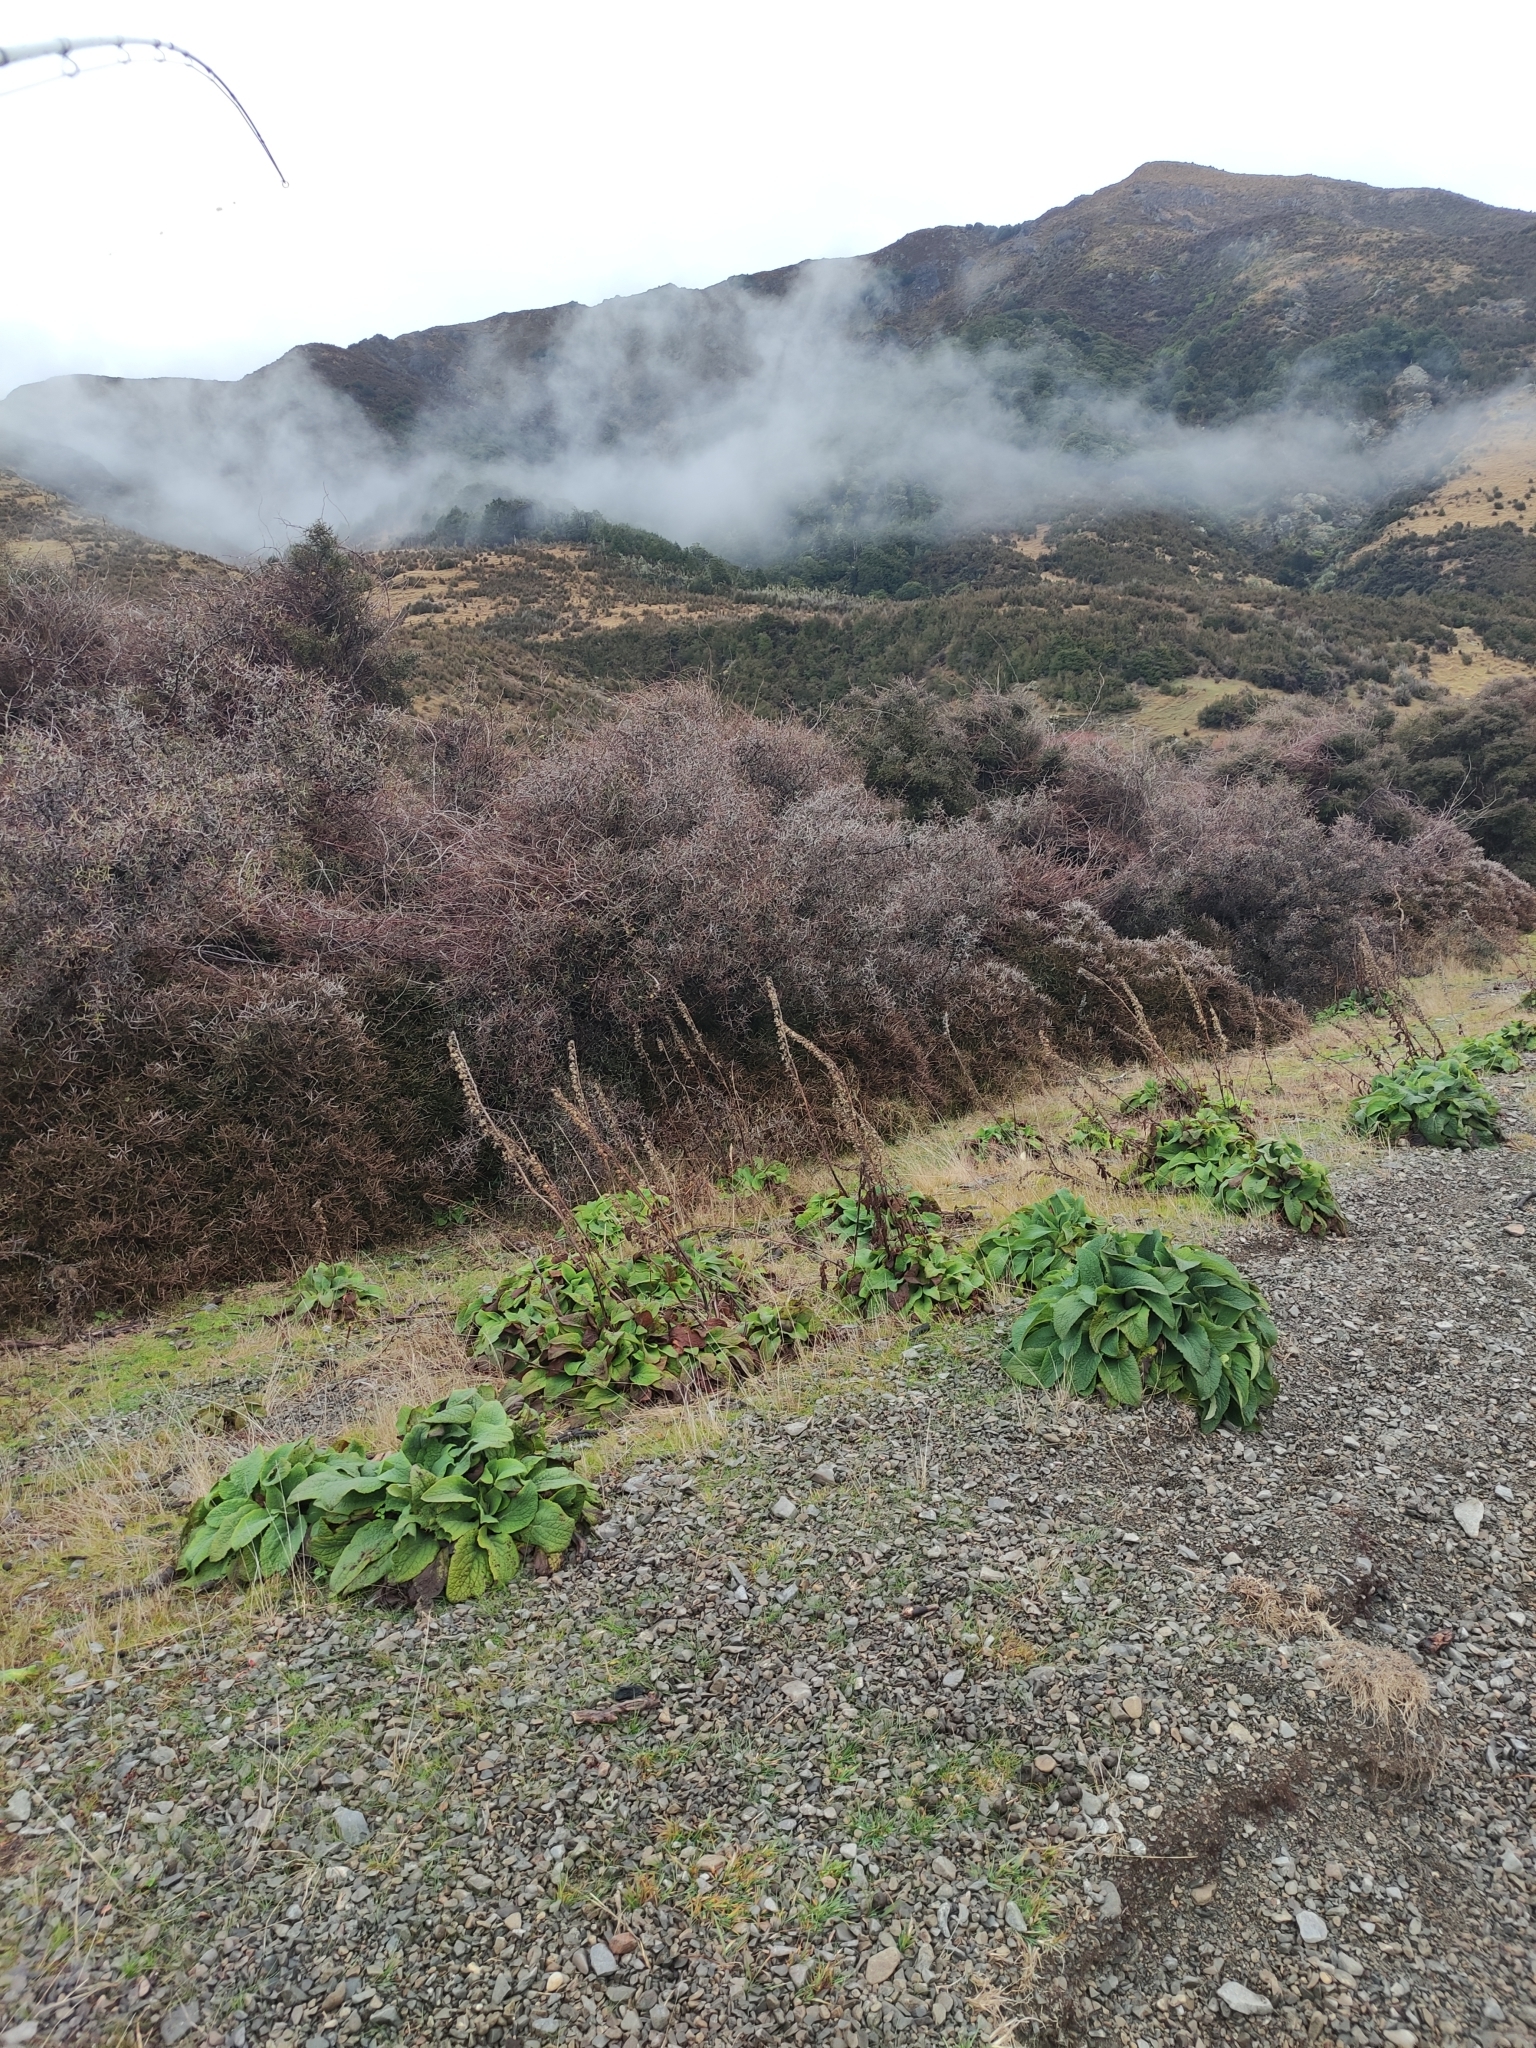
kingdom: Plantae
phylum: Tracheophyta
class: Magnoliopsida
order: Lamiales
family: Plantaginaceae
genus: Digitalis
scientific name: Digitalis purpurea
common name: Foxglove
